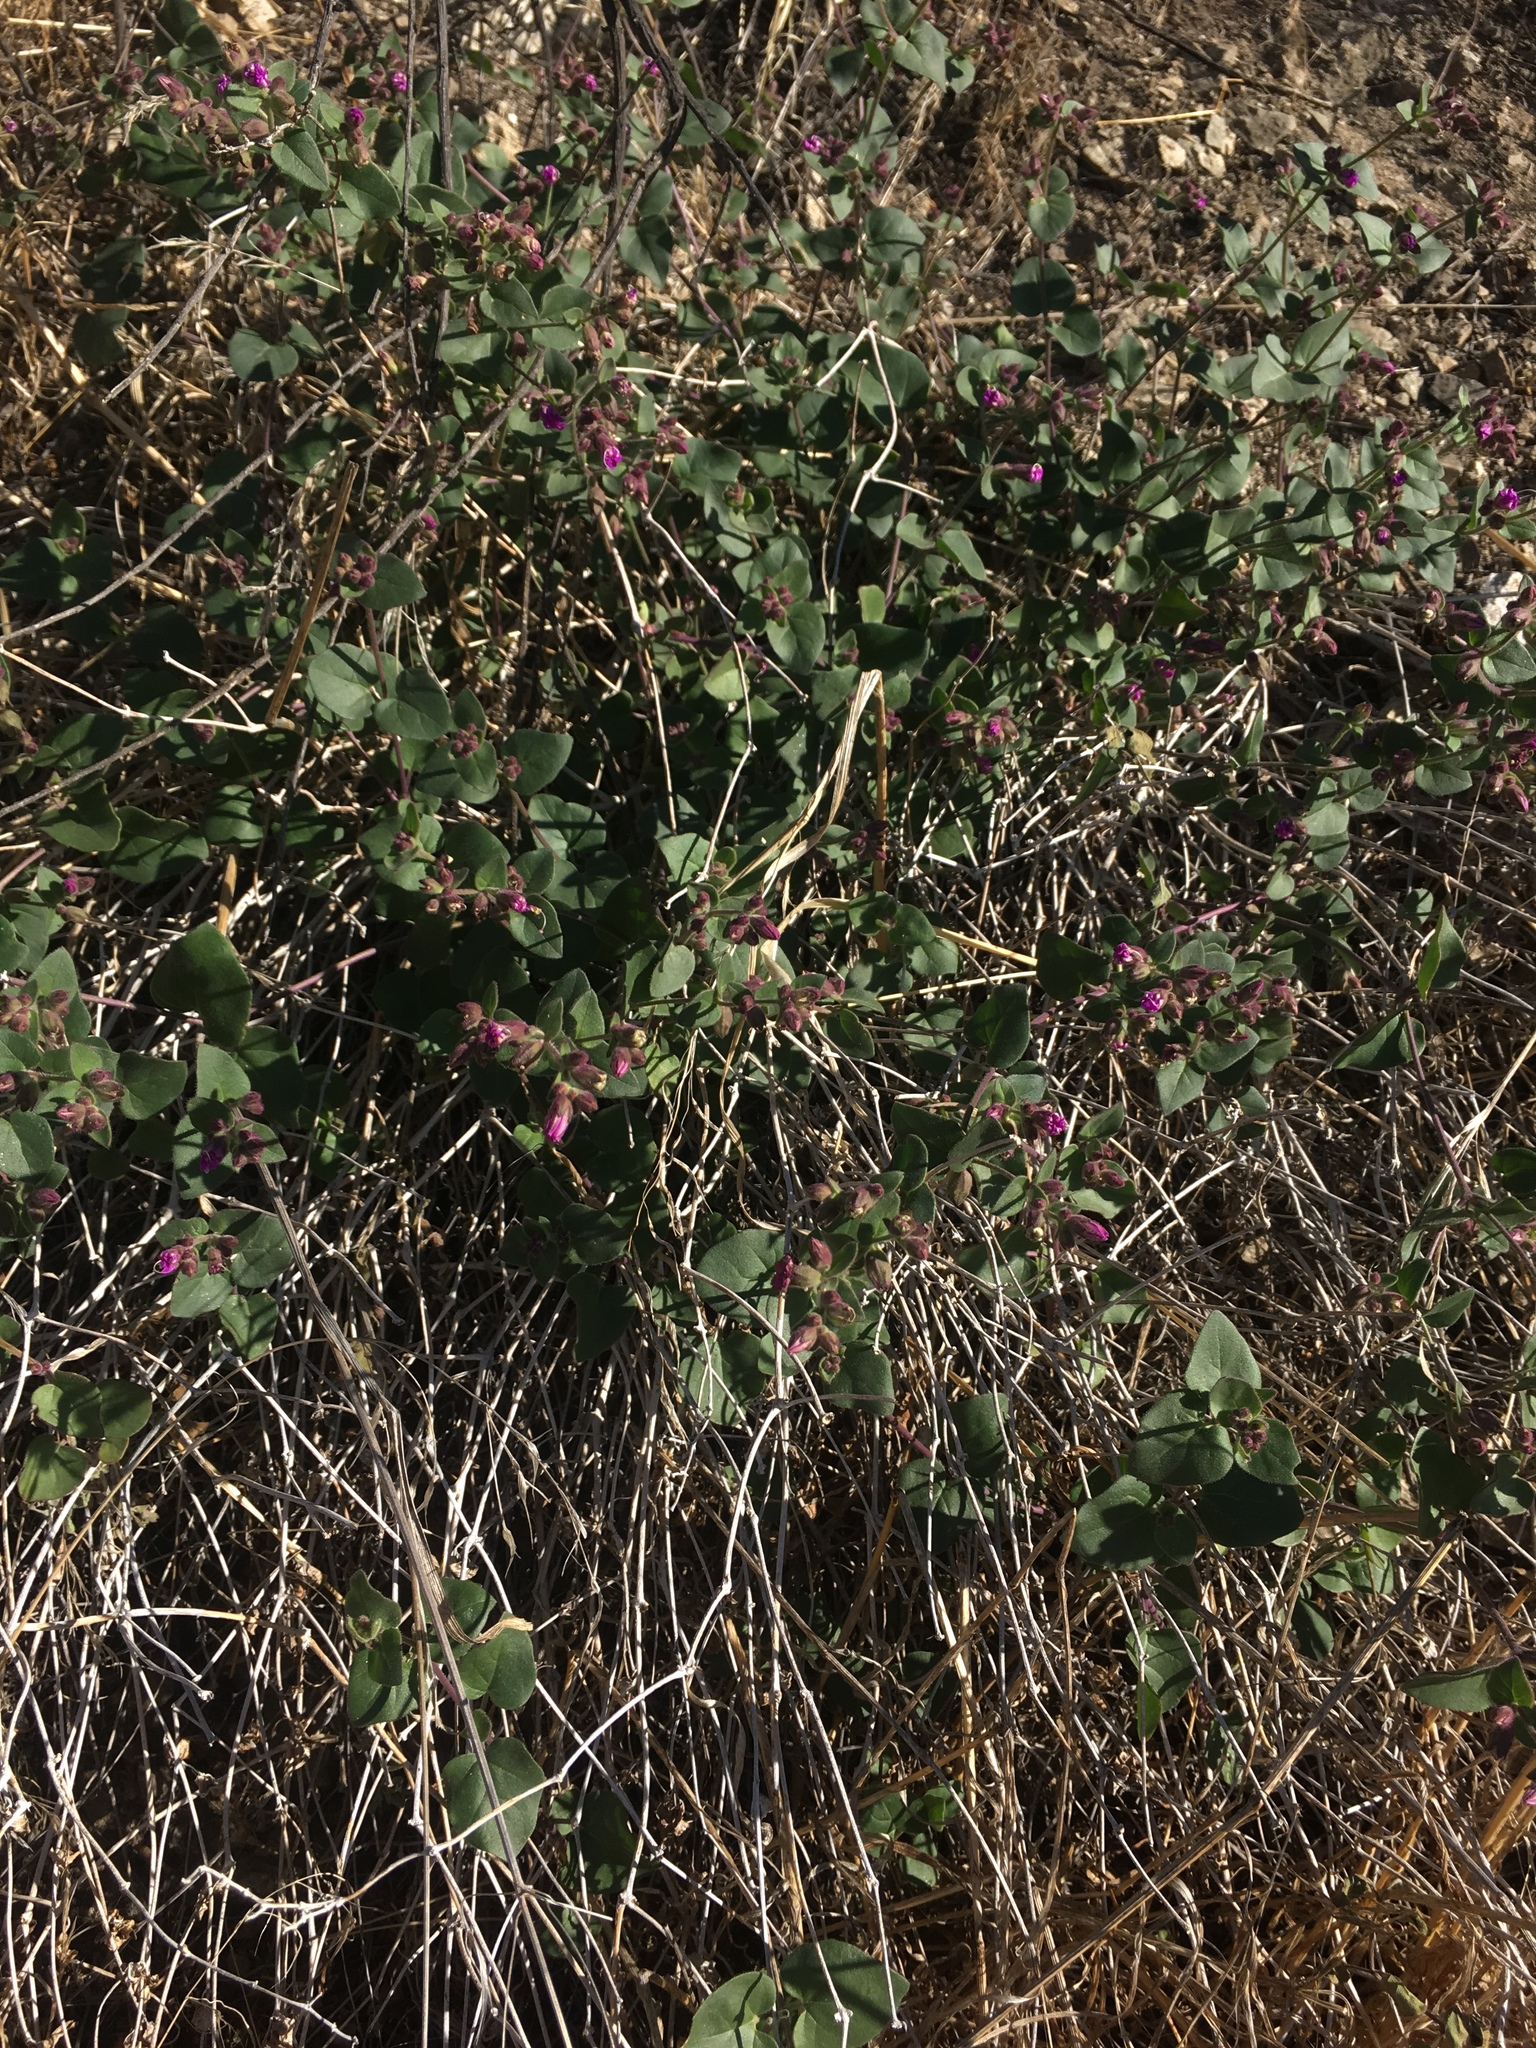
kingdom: Plantae
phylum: Tracheophyta
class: Magnoliopsida
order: Caryophyllales
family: Nyctaginaceae
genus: Mirabilis
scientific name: Mirabilis laevis
